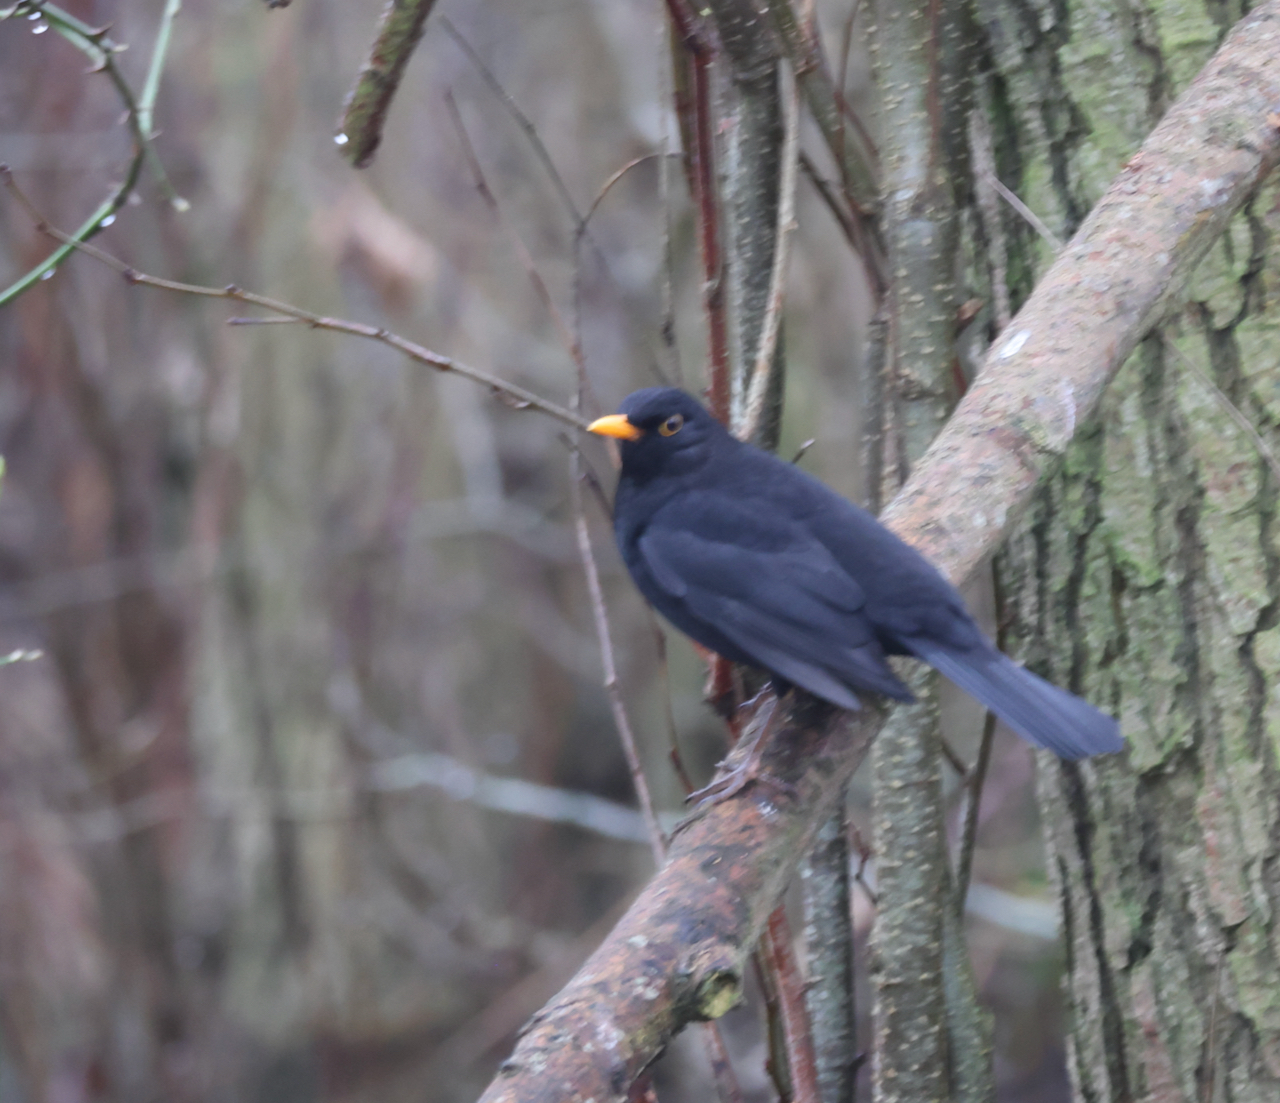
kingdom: Animalia
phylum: Chordata
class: Aves
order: Passeriformes
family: Turdidae
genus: Turdus
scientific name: Turdus merula
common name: Common blackbird
